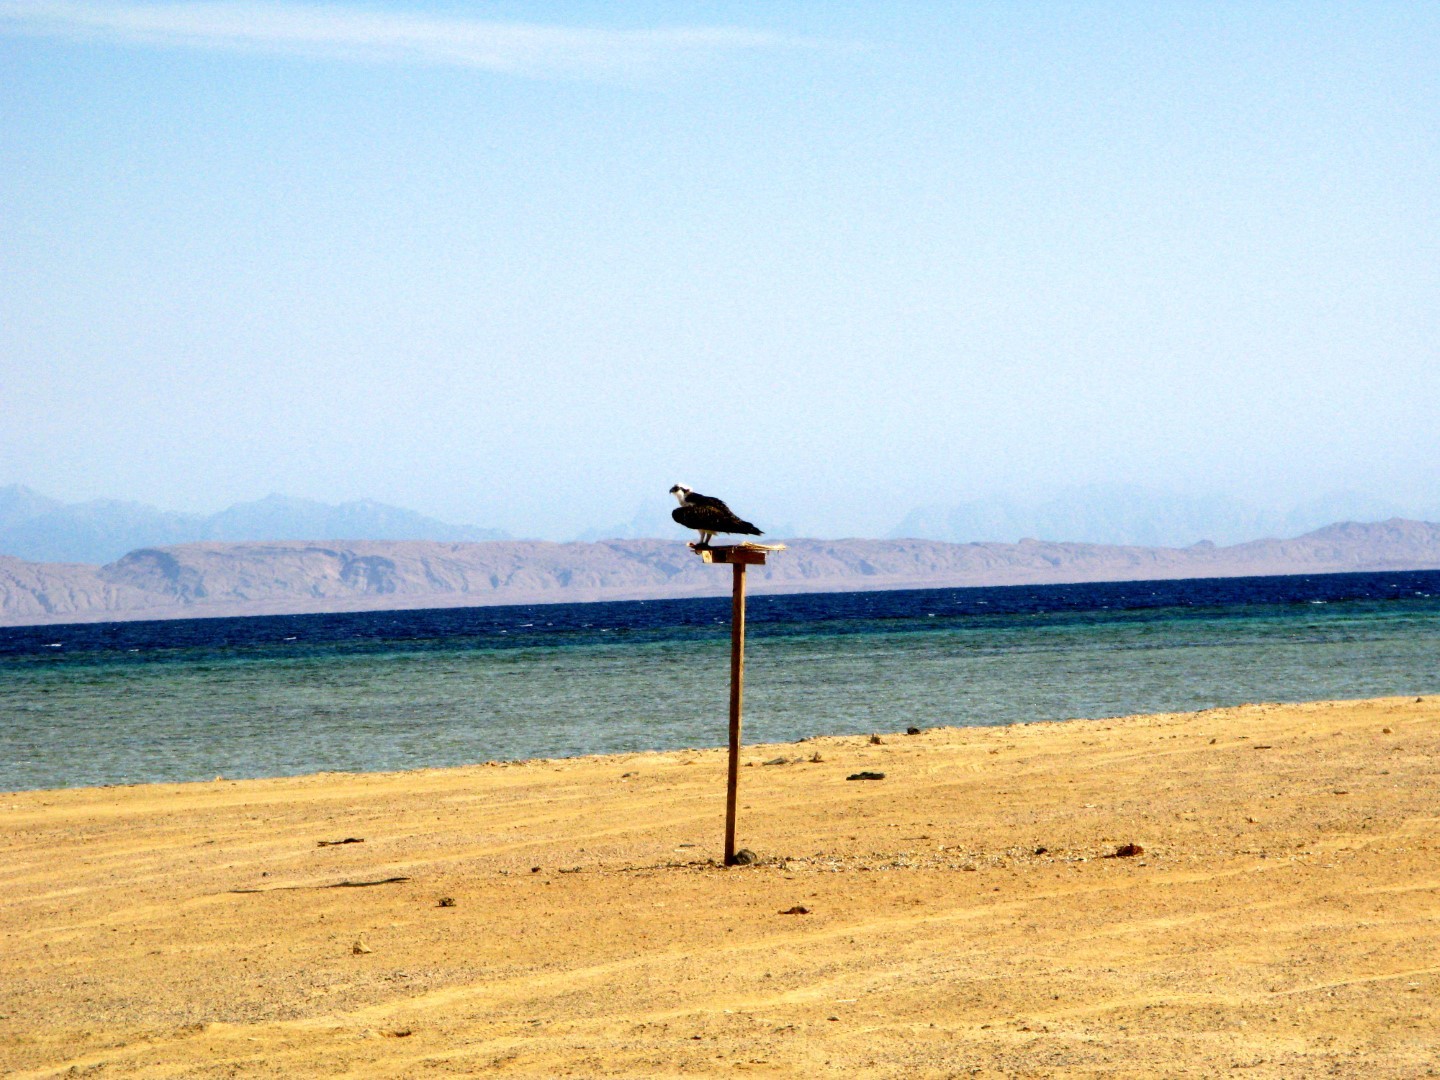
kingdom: Animalia
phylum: Chordata
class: Aves
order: Accipitriformes
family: Pandionidae
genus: Pandion
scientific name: Pandion haliaetus
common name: Osprey
